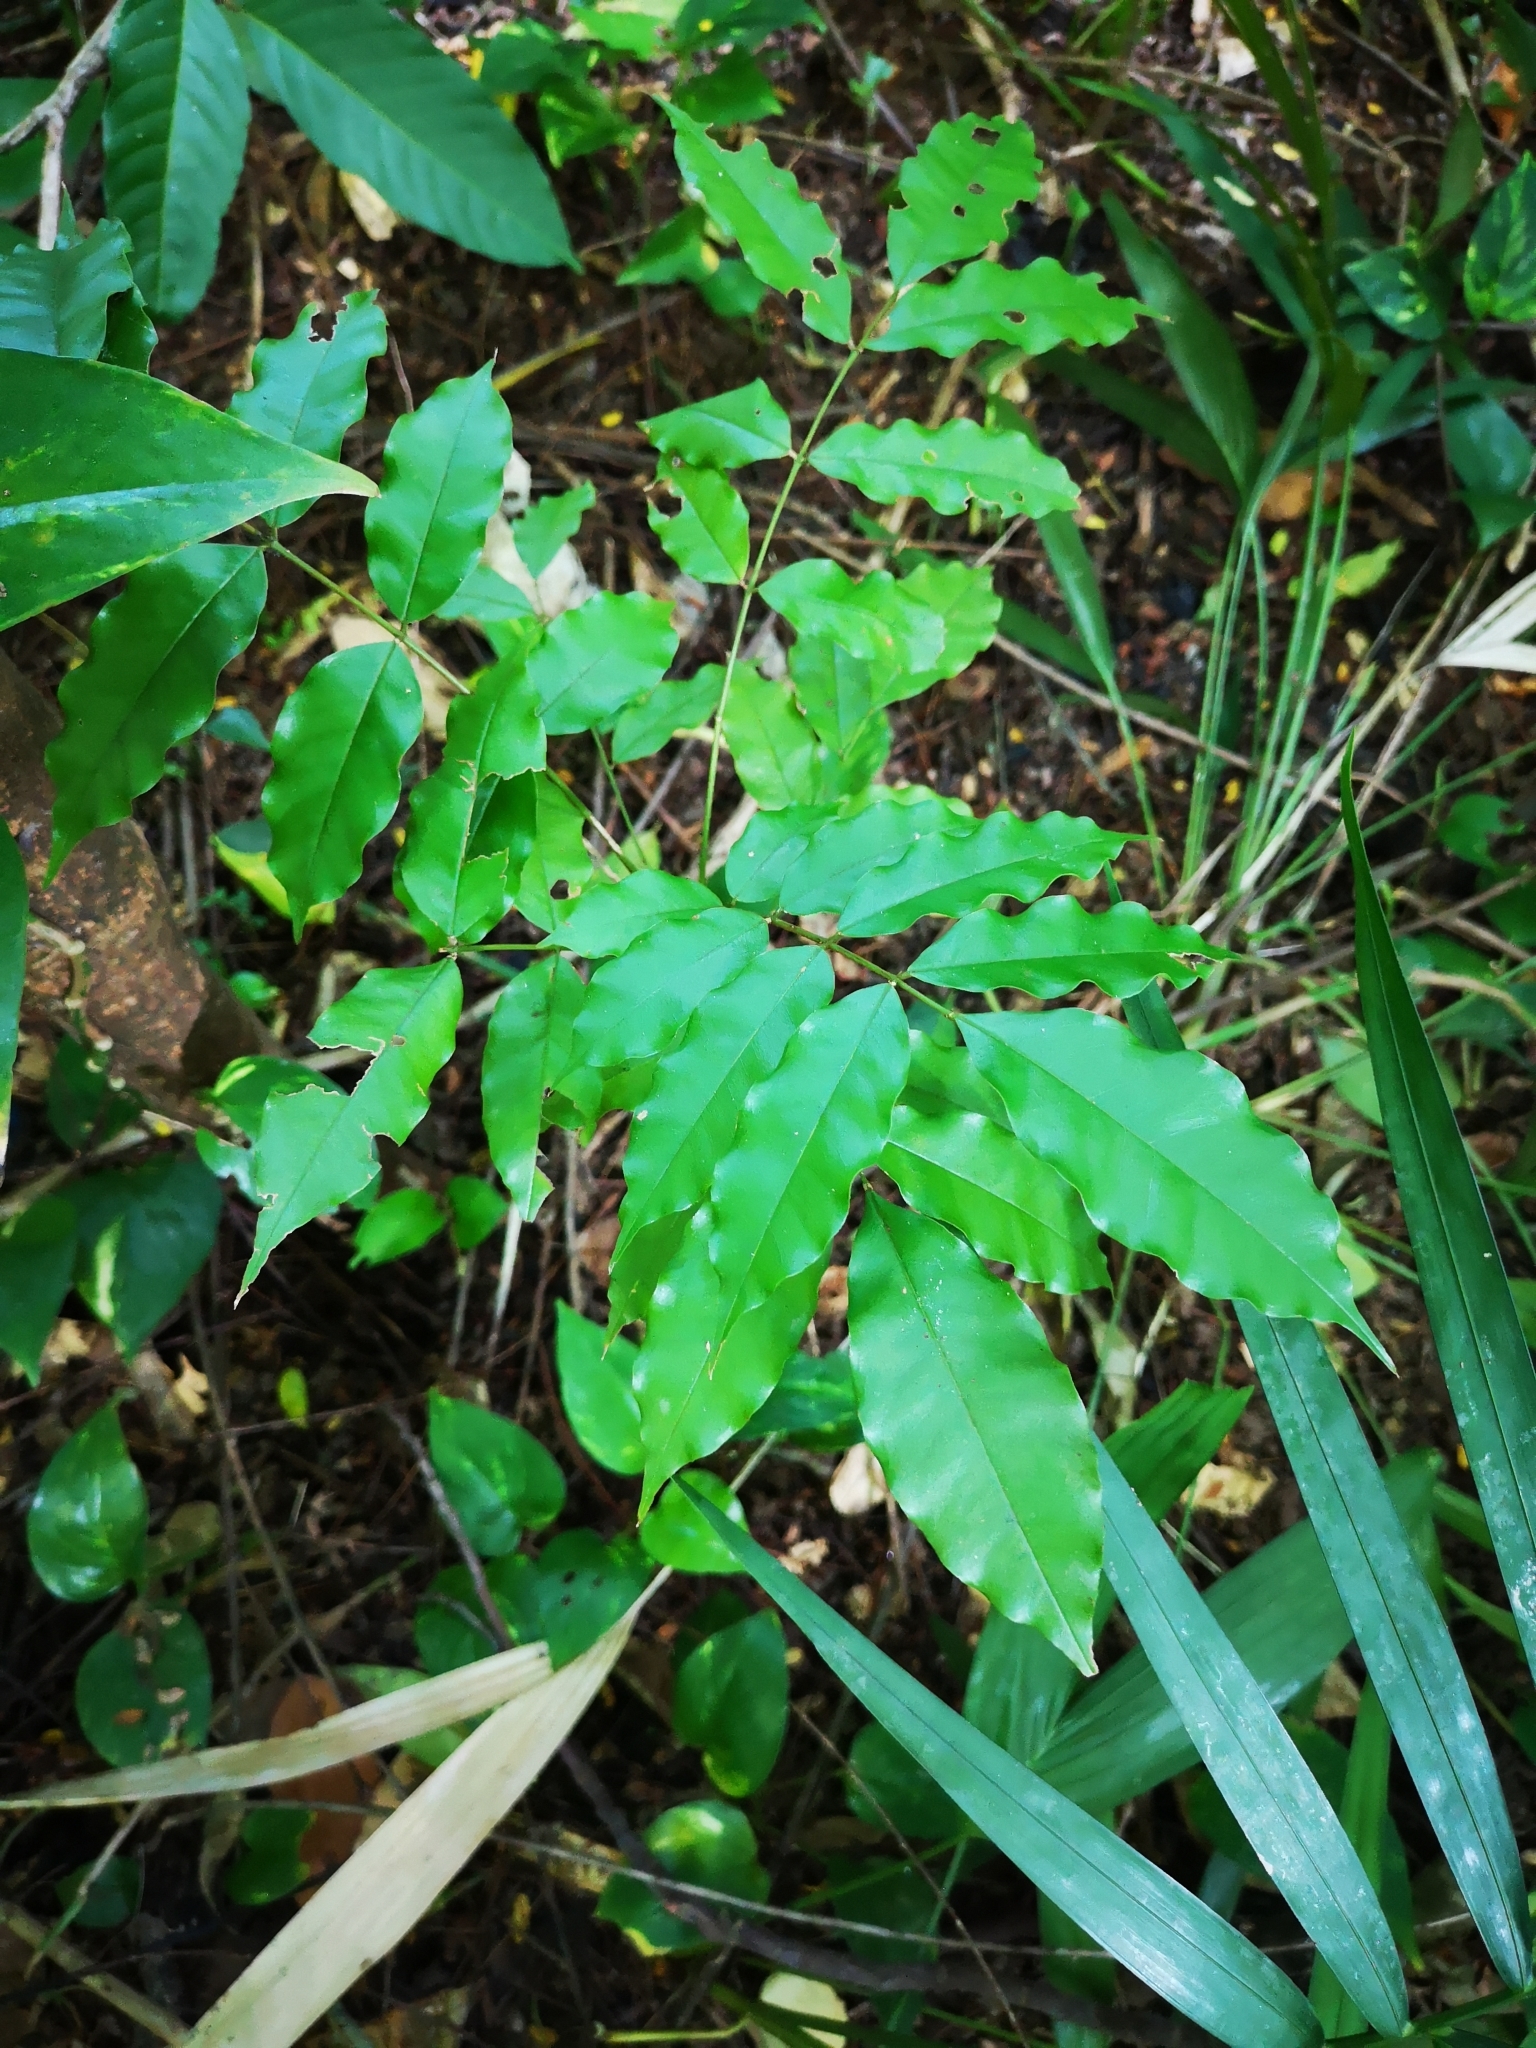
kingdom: Plantae
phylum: Tracheophyta
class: Magnoliopsida
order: Fabales
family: Fabaceae
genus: Andira
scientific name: Andira inermis
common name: Angelin
